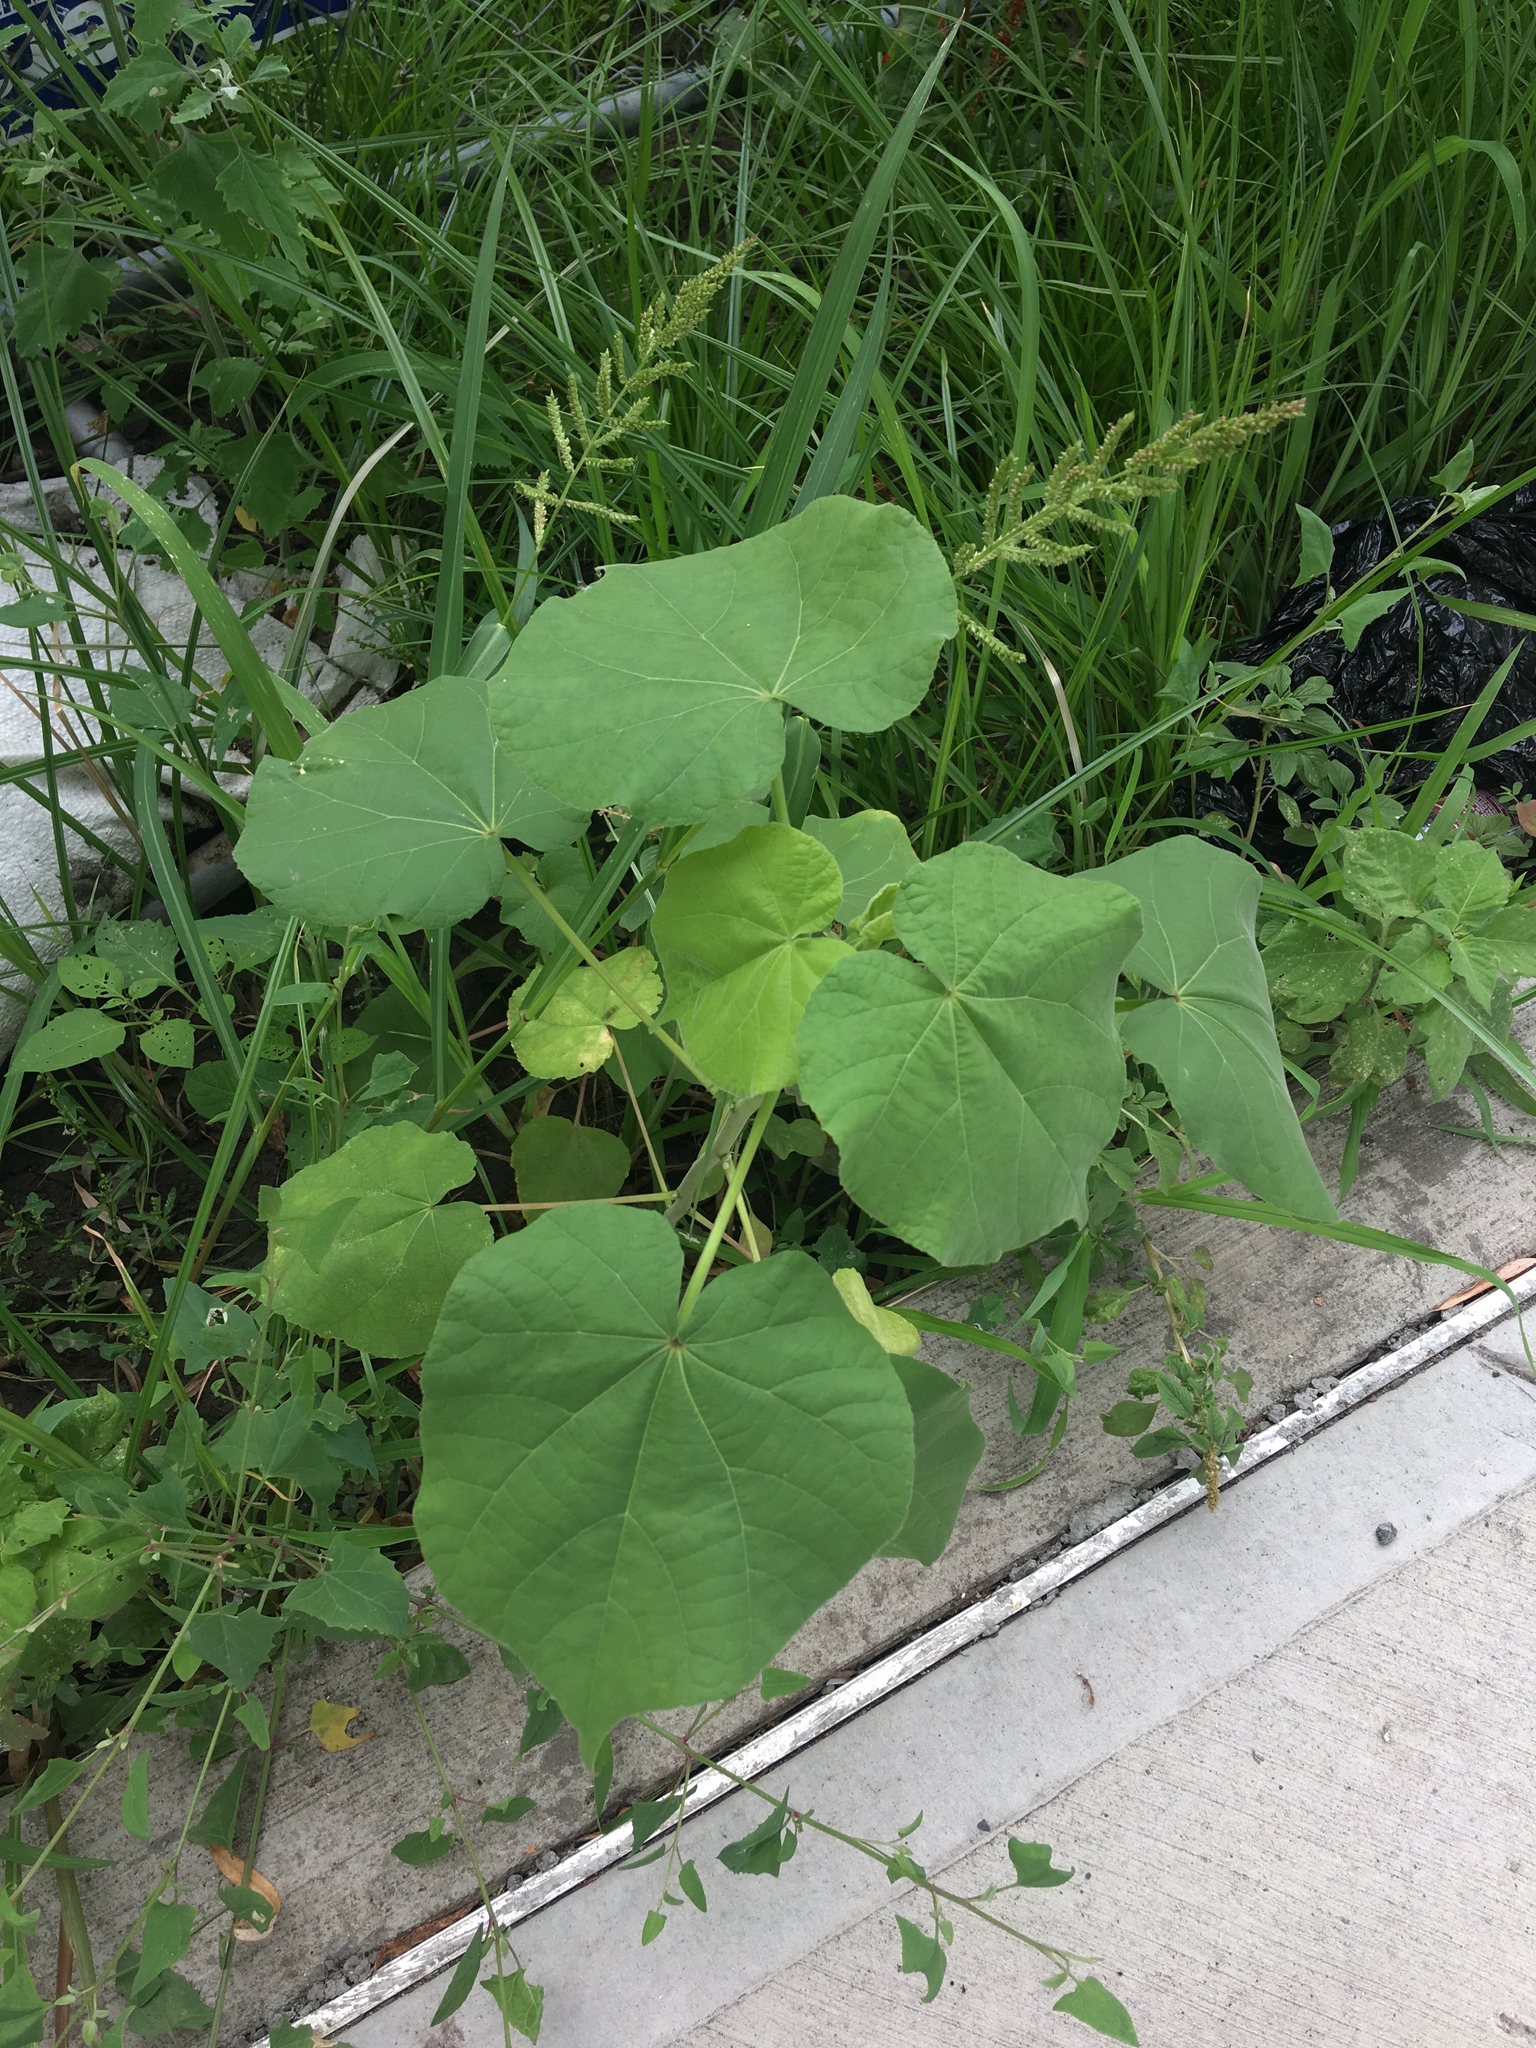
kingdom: Plantae
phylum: Tracheophyta
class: Magnoliopsida
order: Malvales
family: Malvaceae
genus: Abutilon
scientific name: Abutilon theophrasti
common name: Velvetleaf
